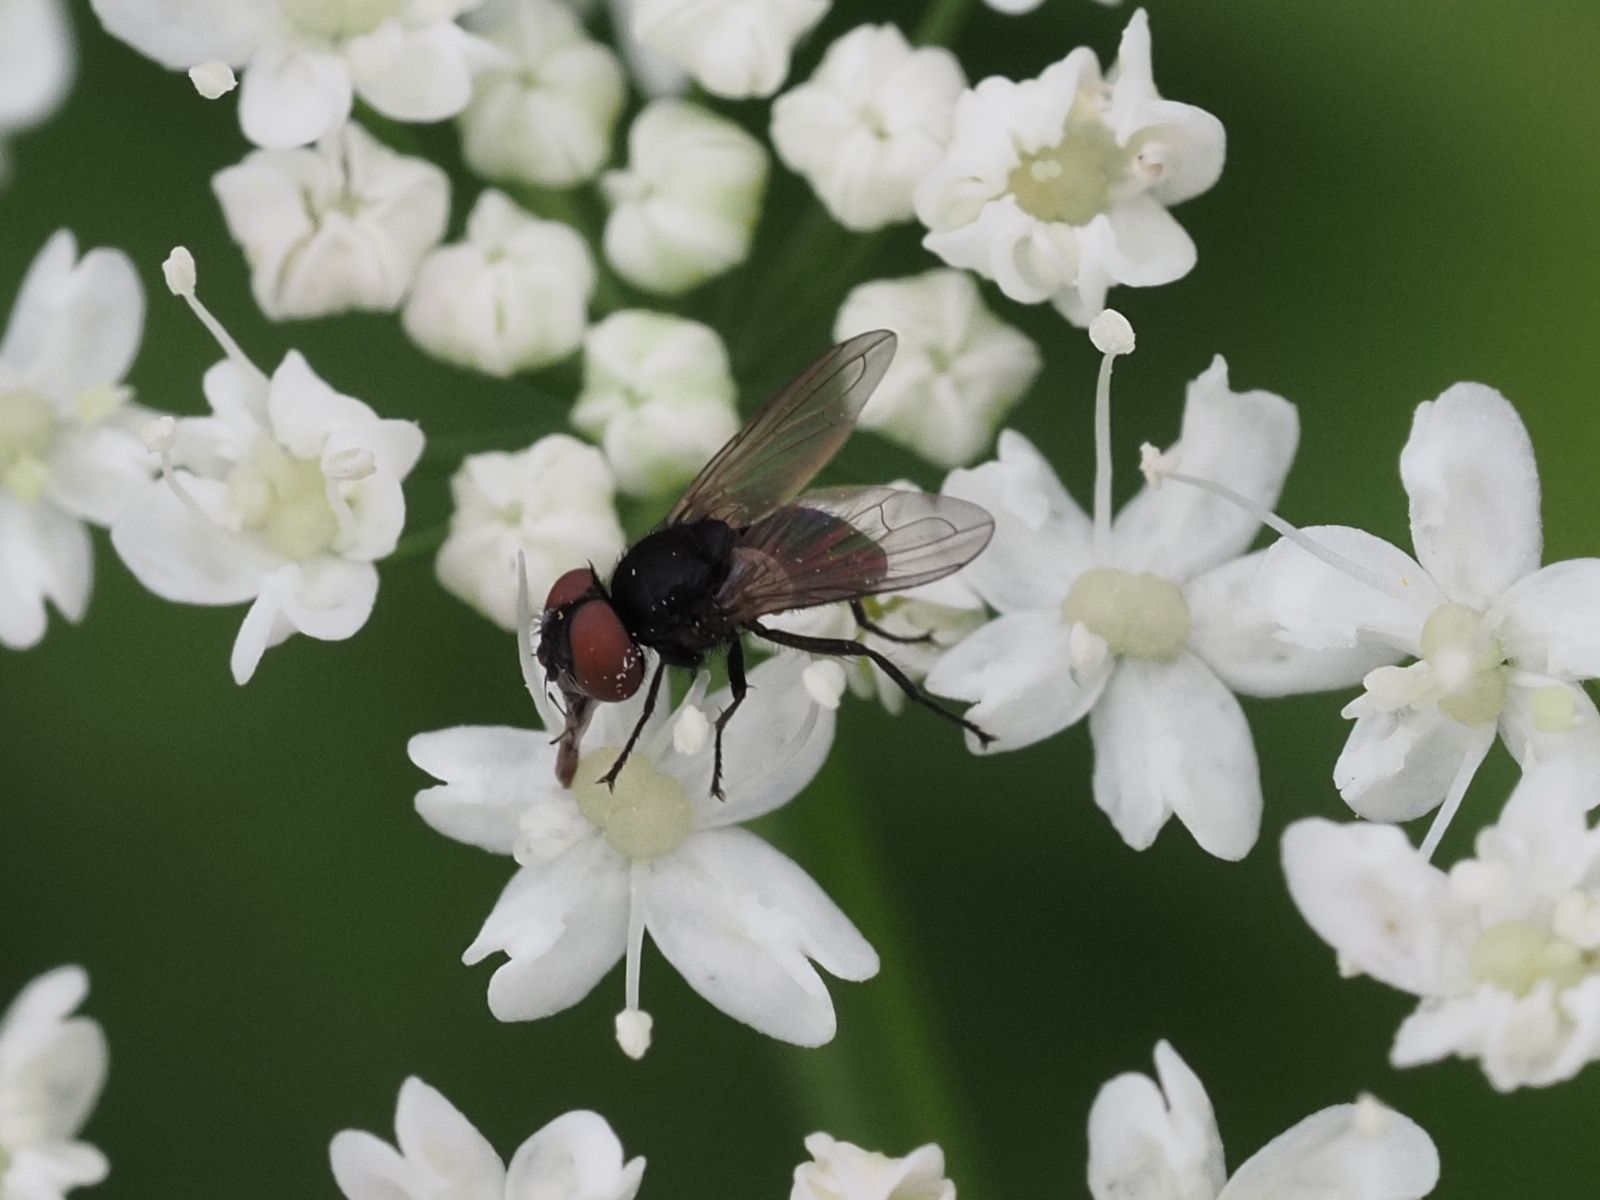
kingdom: Animalia
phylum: Arthropoda
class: Insecta
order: Diptera
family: Tachinidae
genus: Phasia
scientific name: Phasia barbifrons
